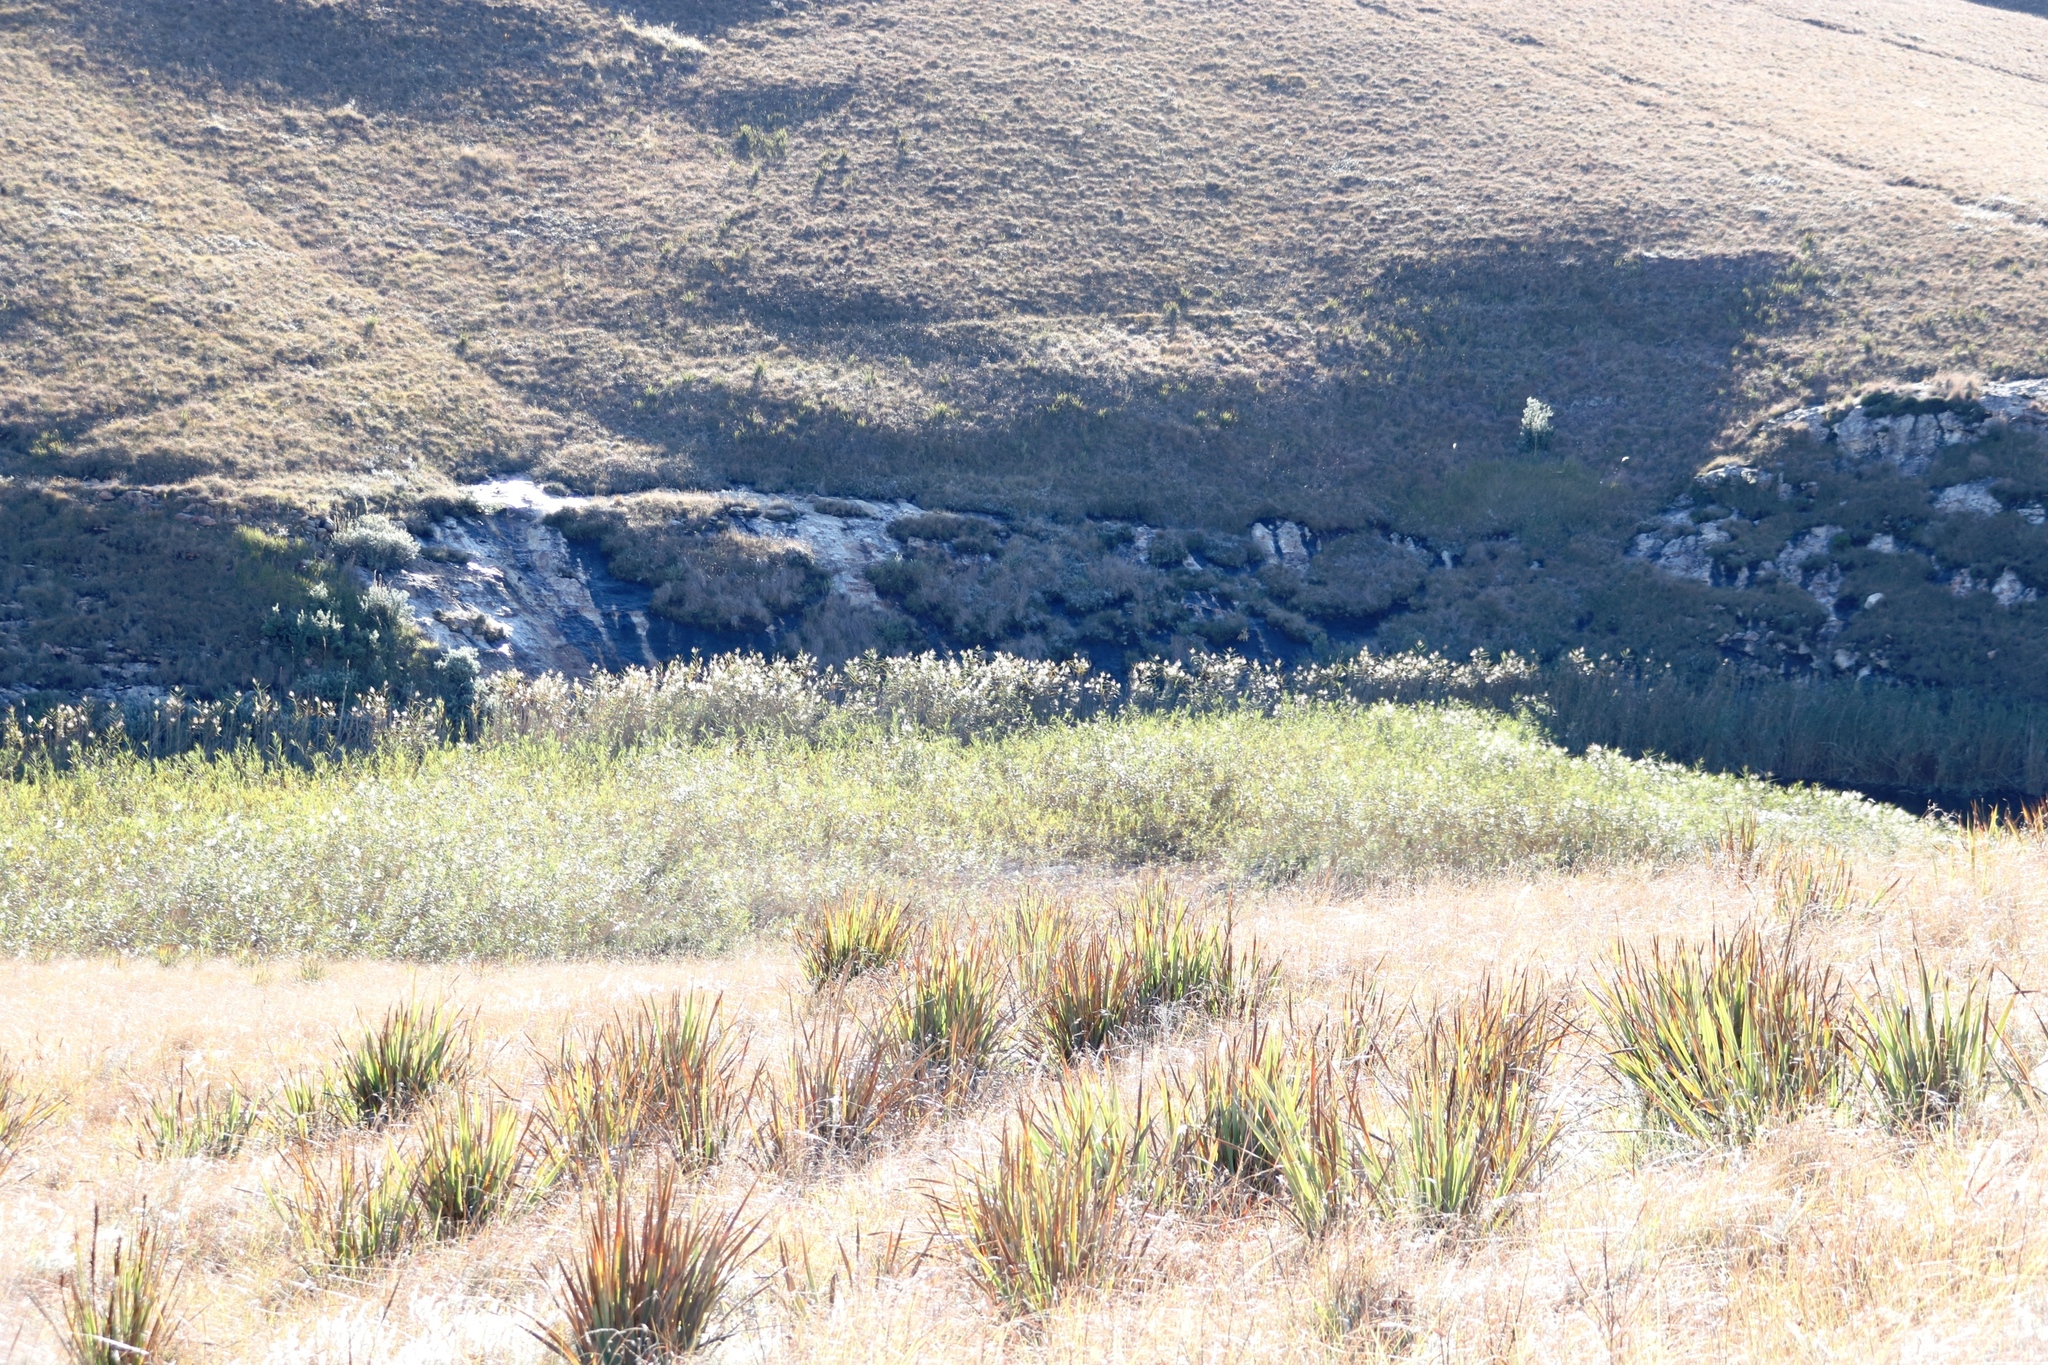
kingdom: Plantae
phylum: Tracheophyta
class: Liliopsida
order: Poales
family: Poaceae
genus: Phragmites
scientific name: Phragmites australis
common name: Common reed
